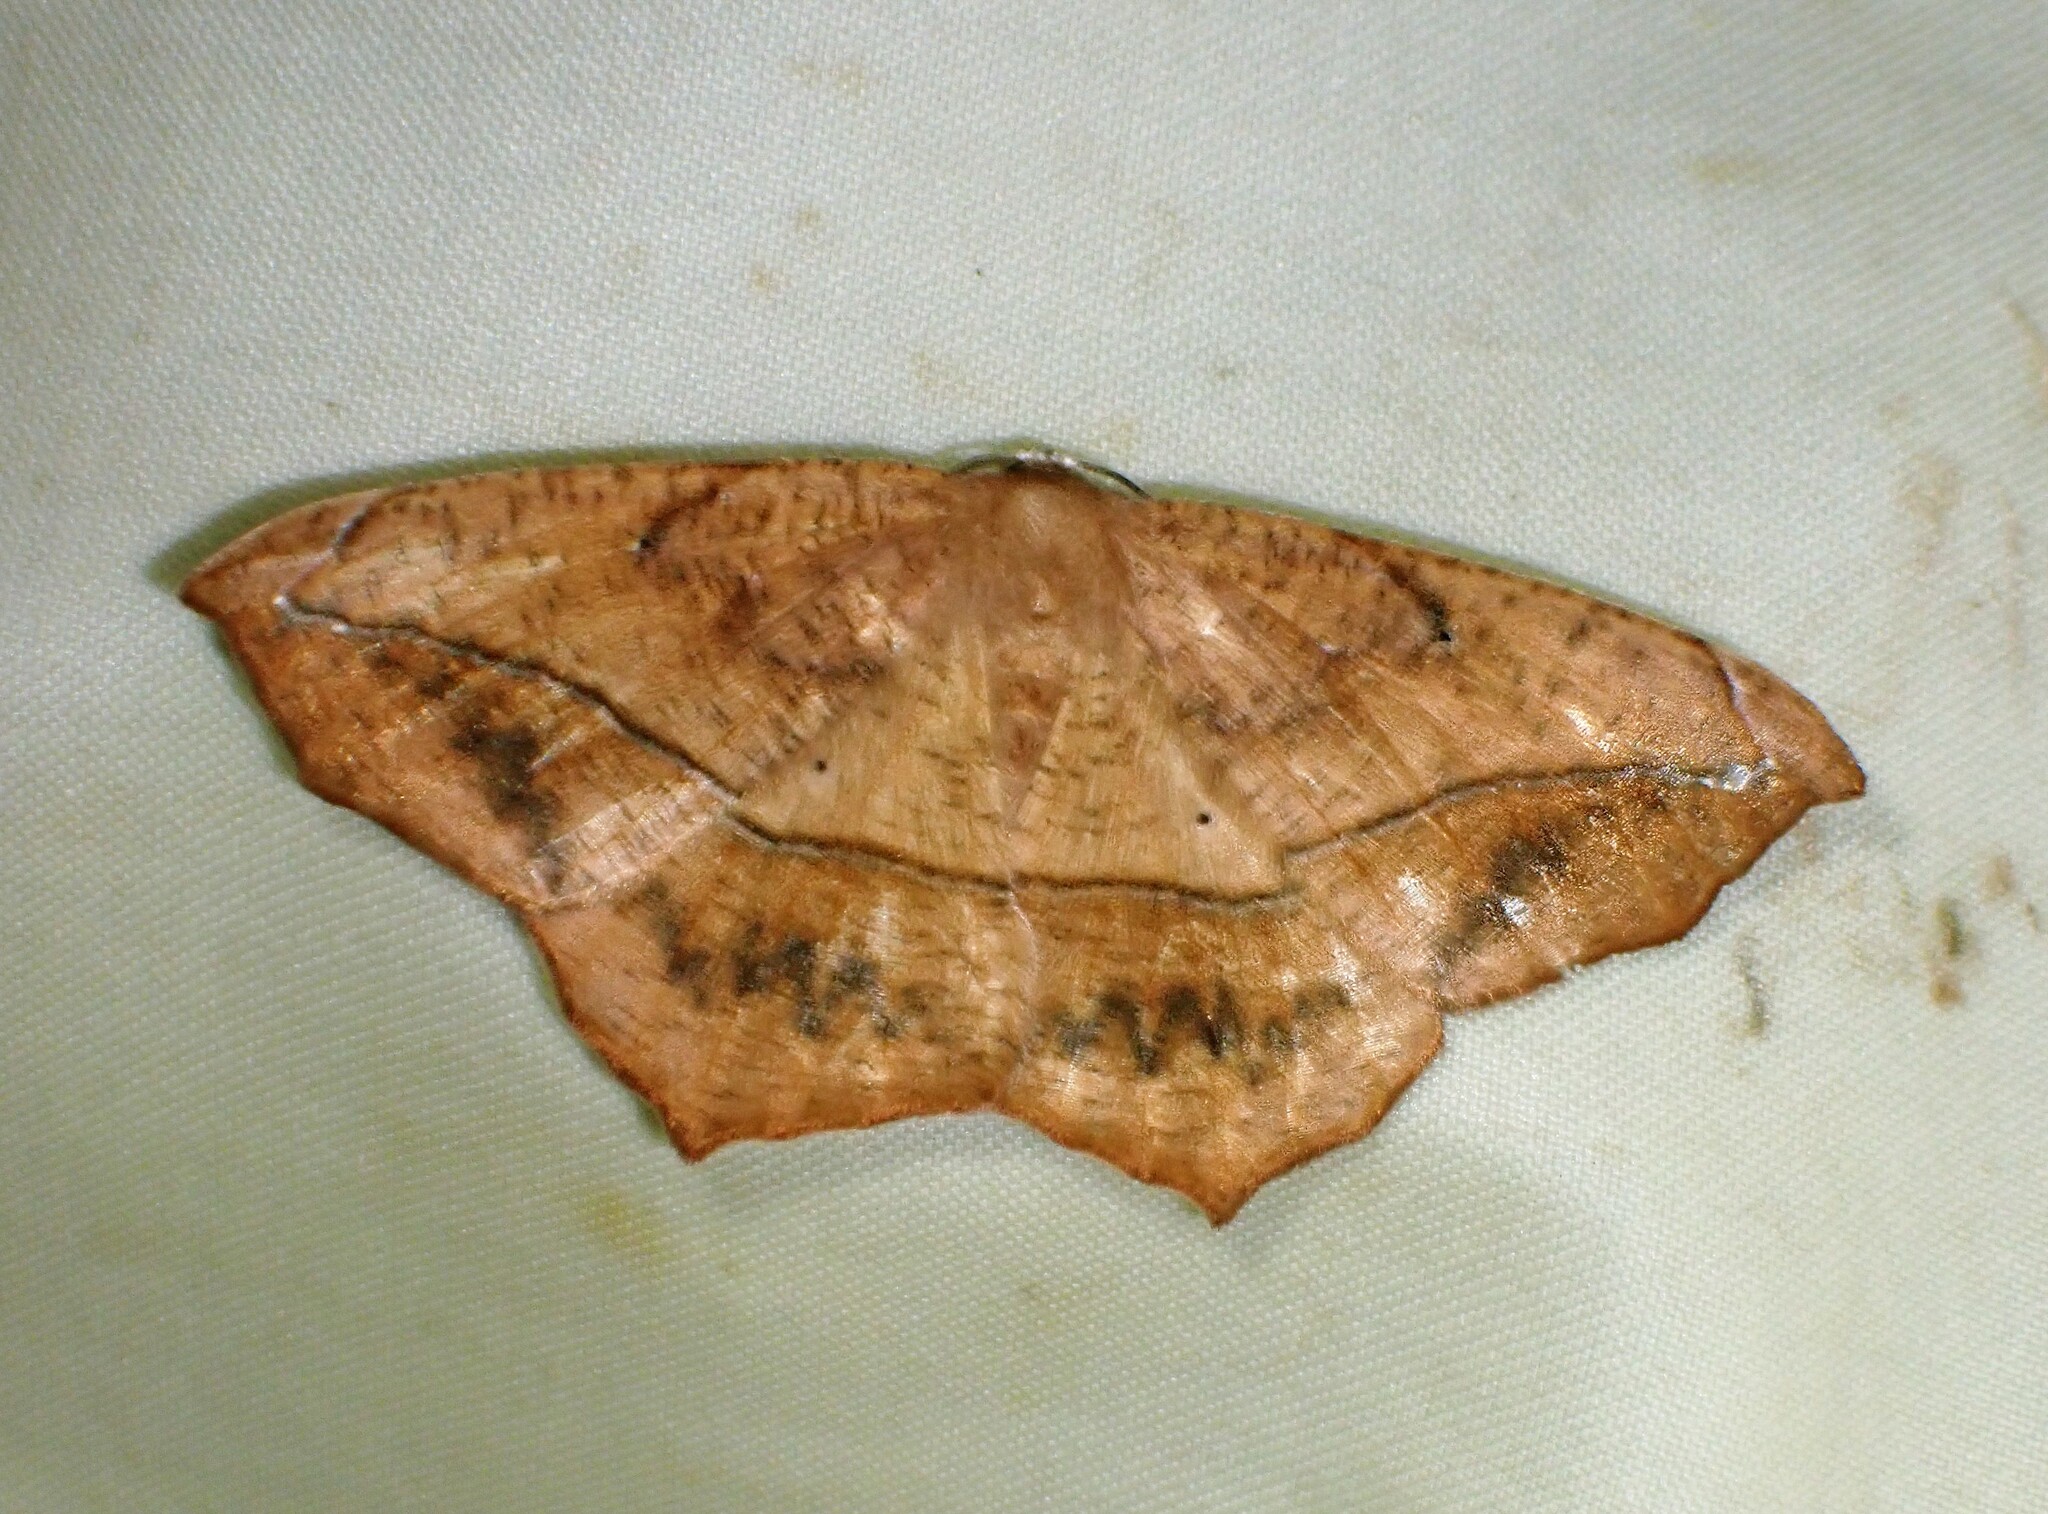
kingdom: Animalia
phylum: Arthropoda
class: Insecta
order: Lepidoptera
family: Geometridae
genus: Prochoerodes
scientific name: Prochoerodes lineola
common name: Large maple spanworm
